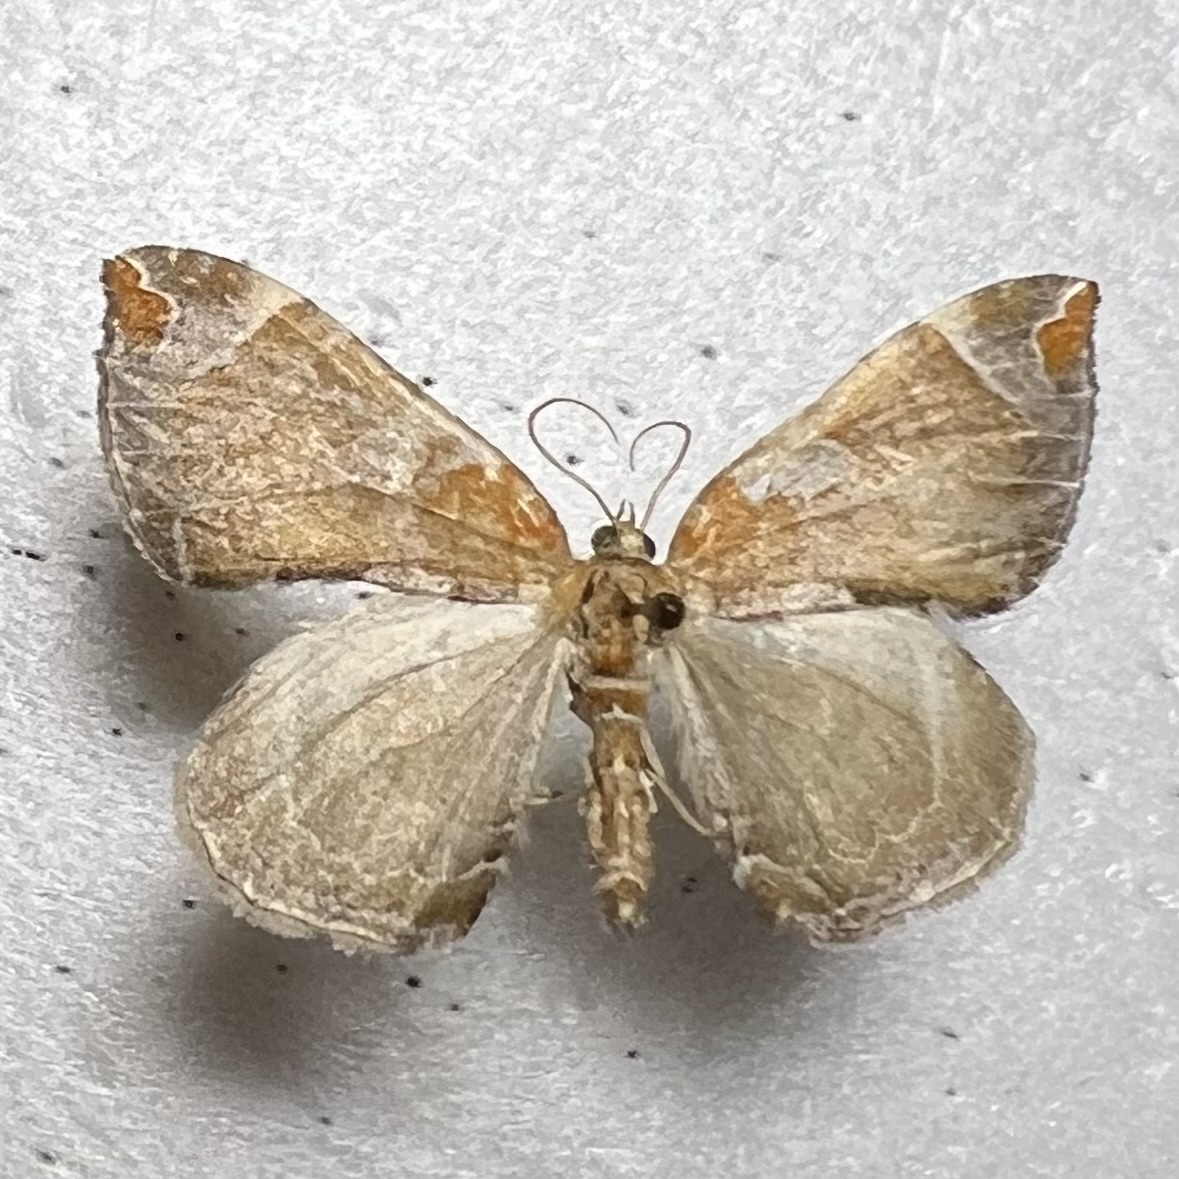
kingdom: Animalia
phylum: Arthropoda
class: Insecta
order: Lepidoptera
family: Geometridae
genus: Eulithis
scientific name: Eulithis molliculata
